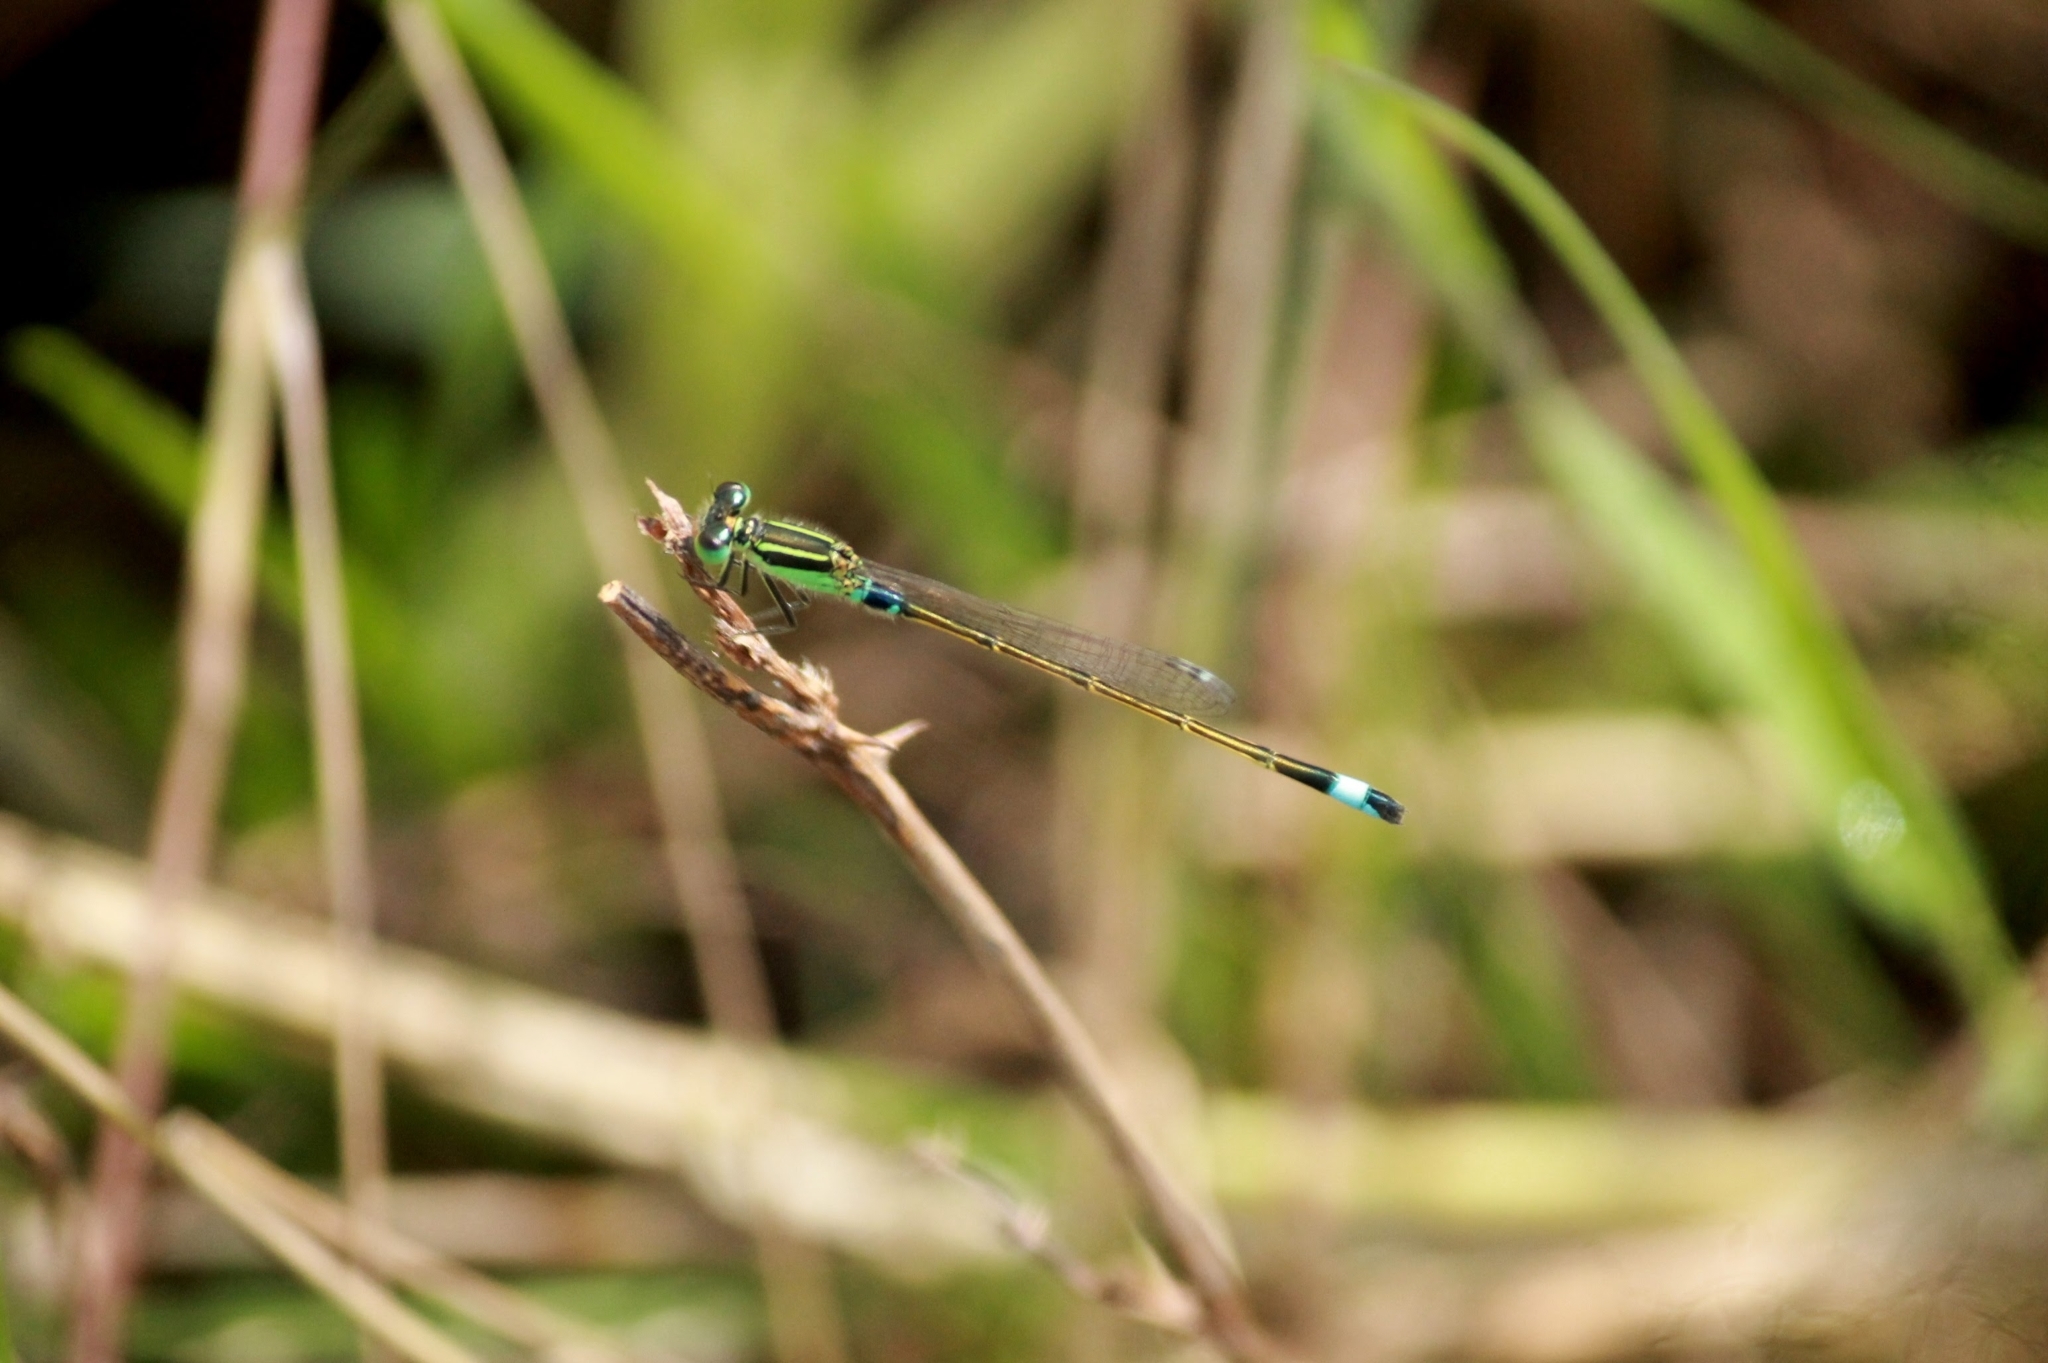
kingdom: Animalia
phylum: Arthropoda
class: Insecta
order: Odonata
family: Coenagrionidae
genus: Ischnura
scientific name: Ischnura senegalensis
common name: Tropical bluetail
